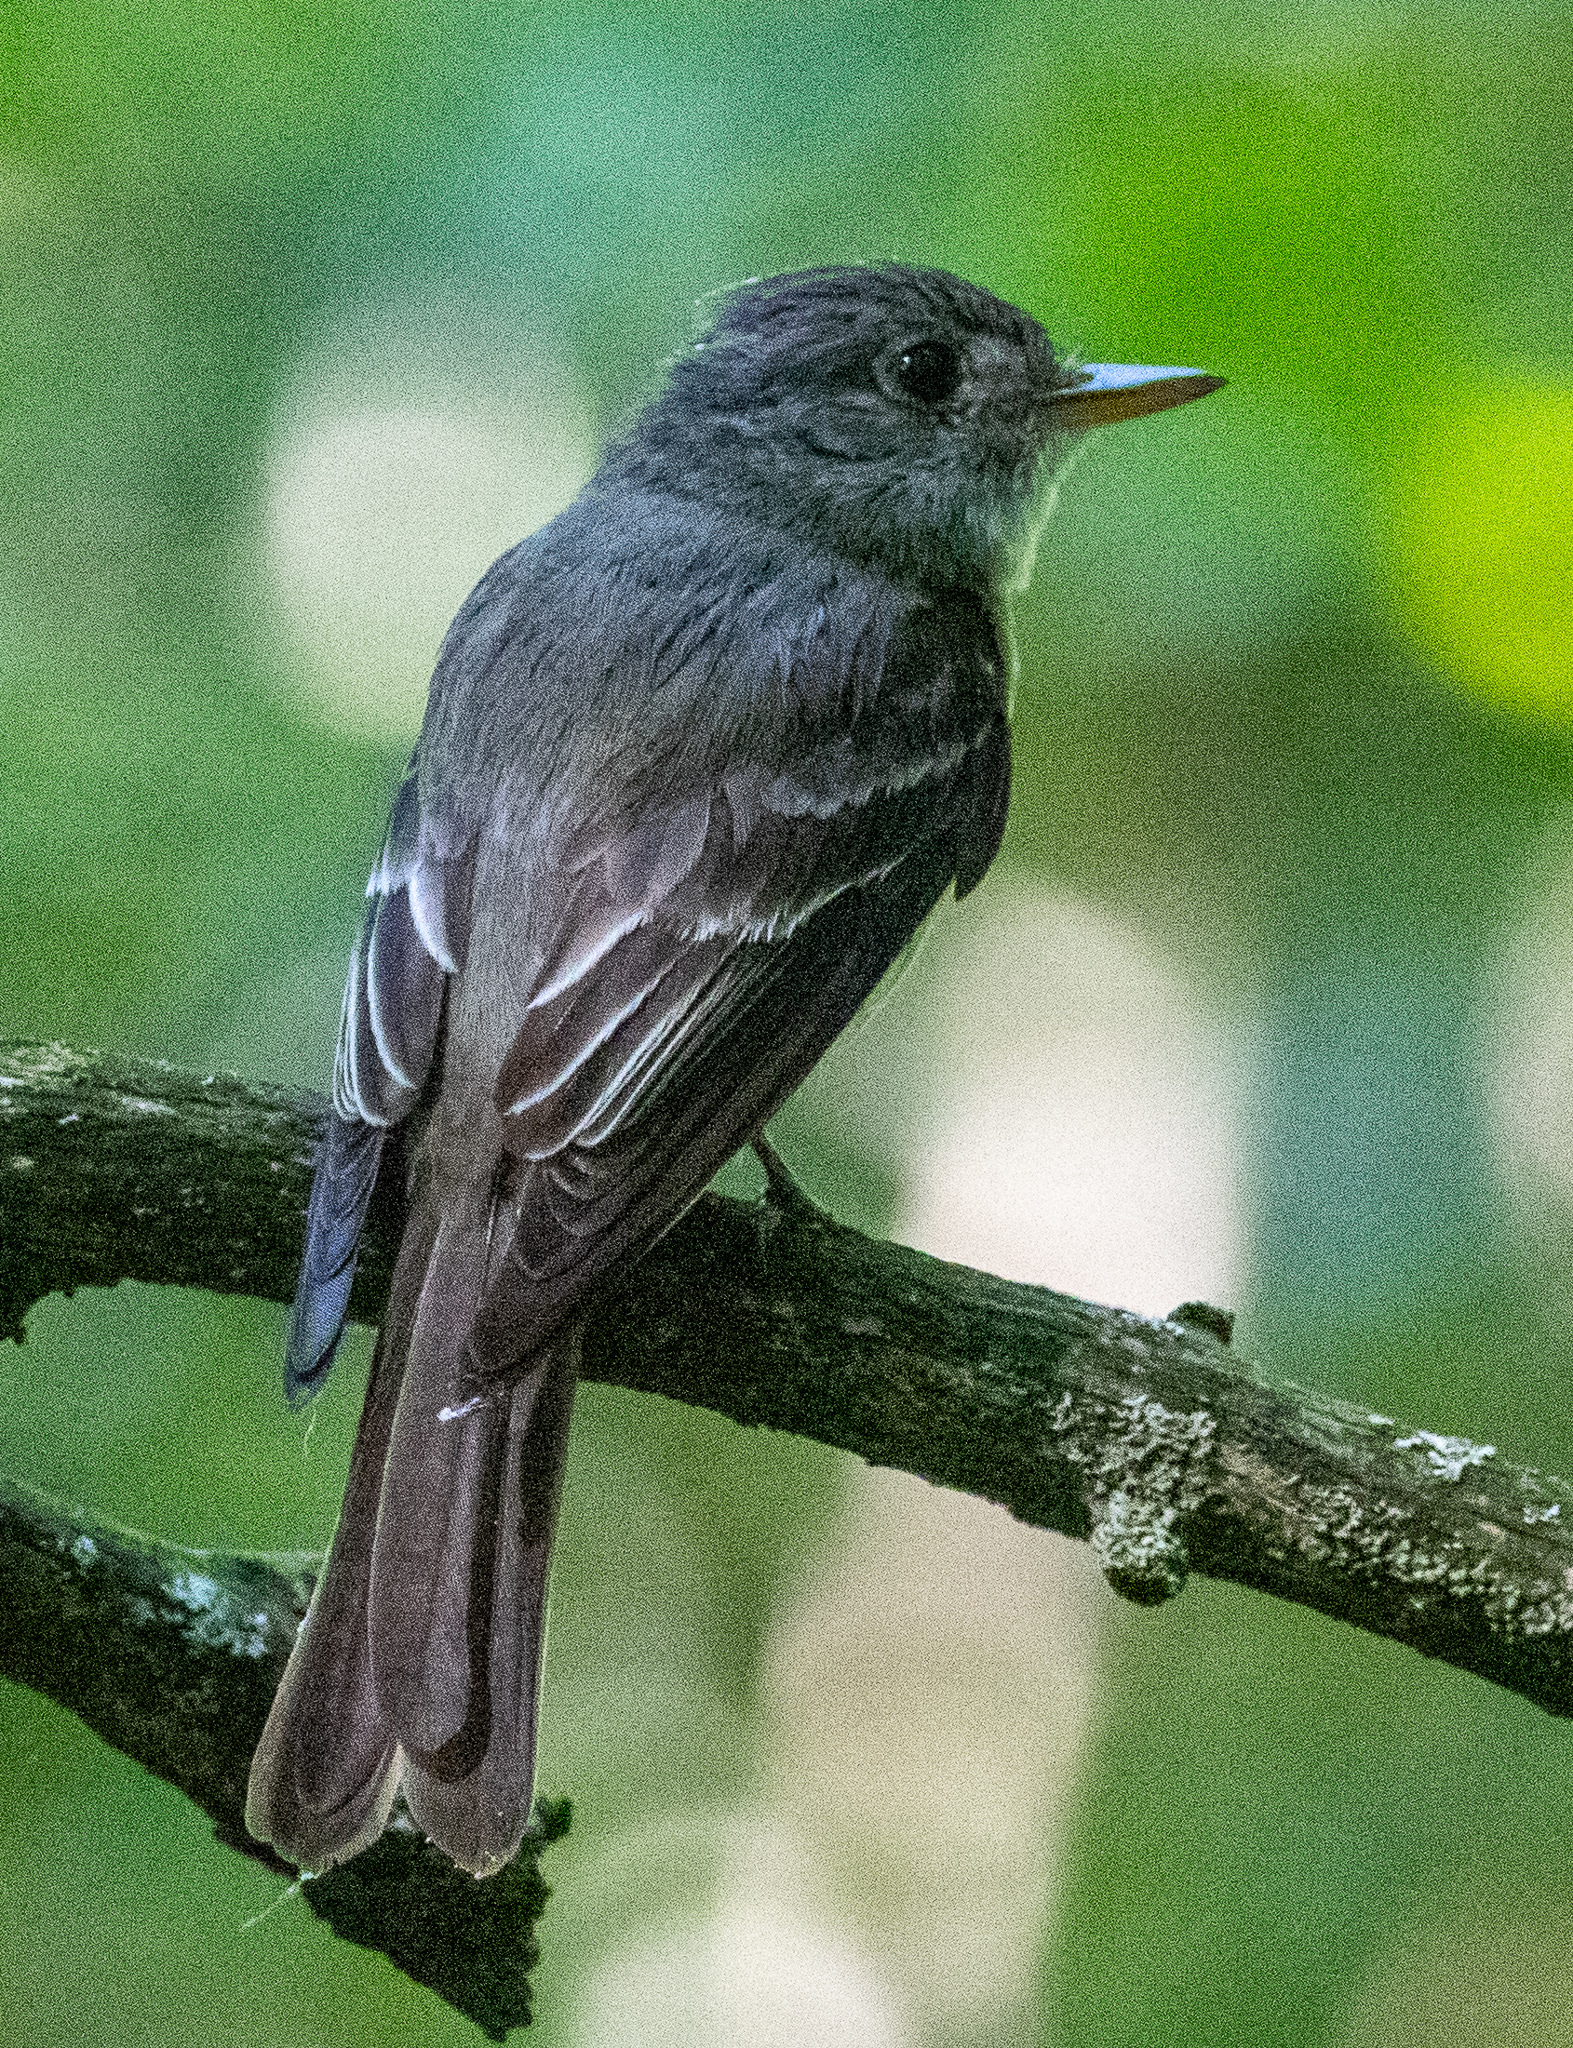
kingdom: Animalia
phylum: Chordata
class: Aves
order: Passeriformes
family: Tyrannidae
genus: Contopus
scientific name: Contopus virens
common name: Eastern wood-pewee
